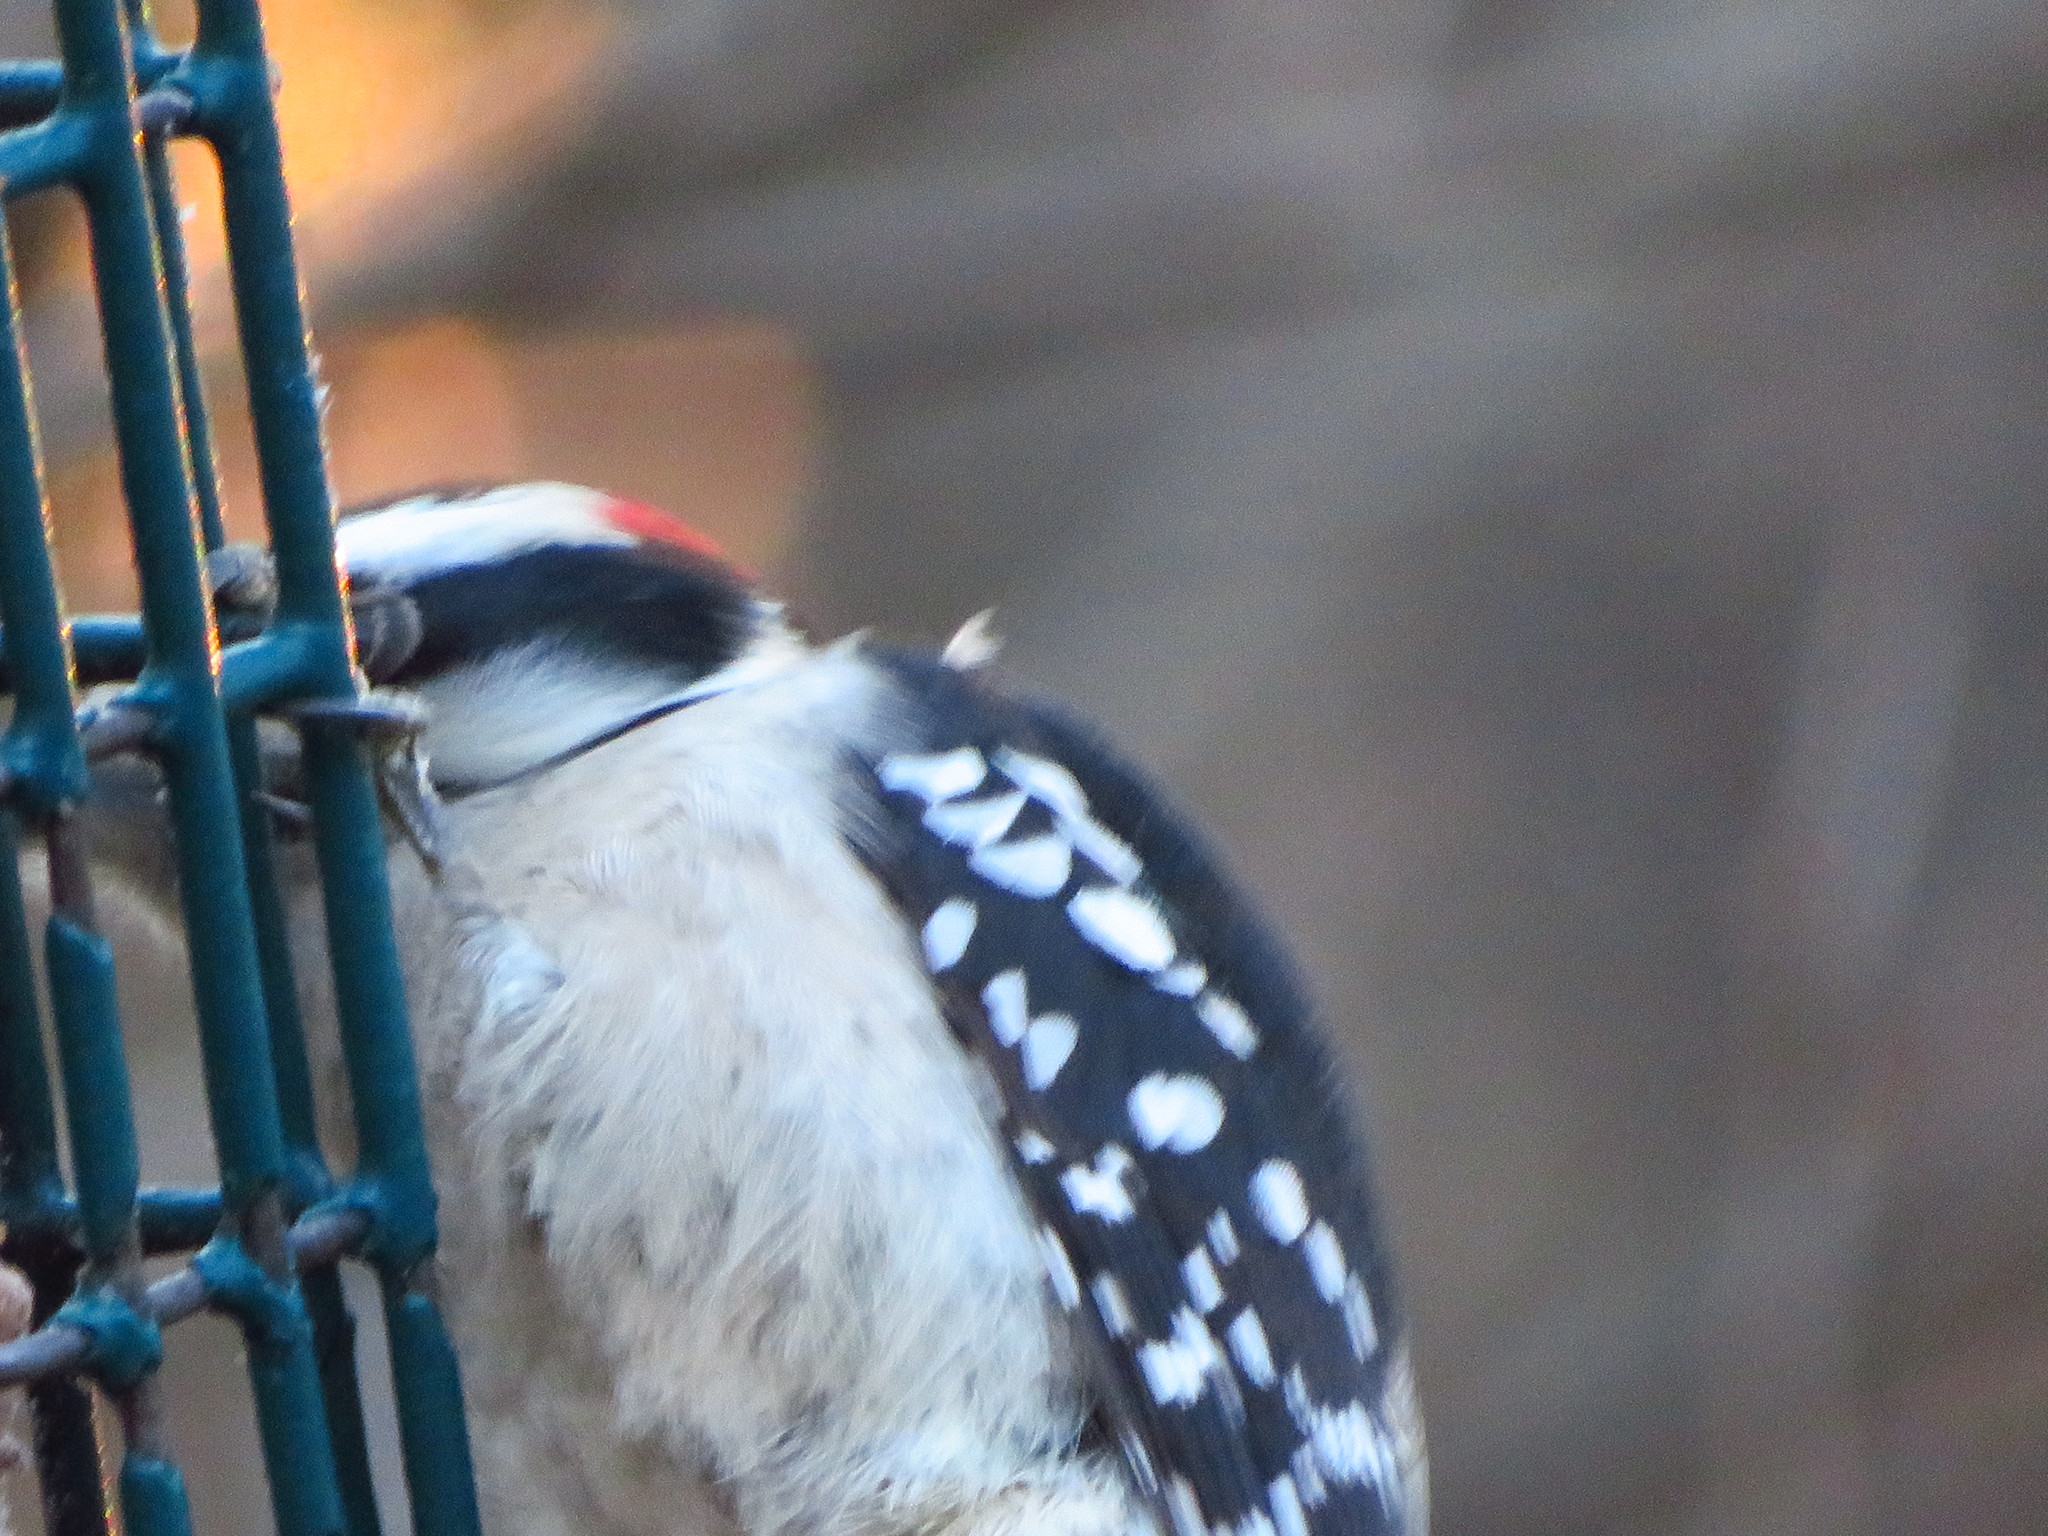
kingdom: Animalia
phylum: Chordata
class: Aves
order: Piciformes
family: Picidae
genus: Dryobates
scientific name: Dryobates pubescens
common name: Downy woodpecker
